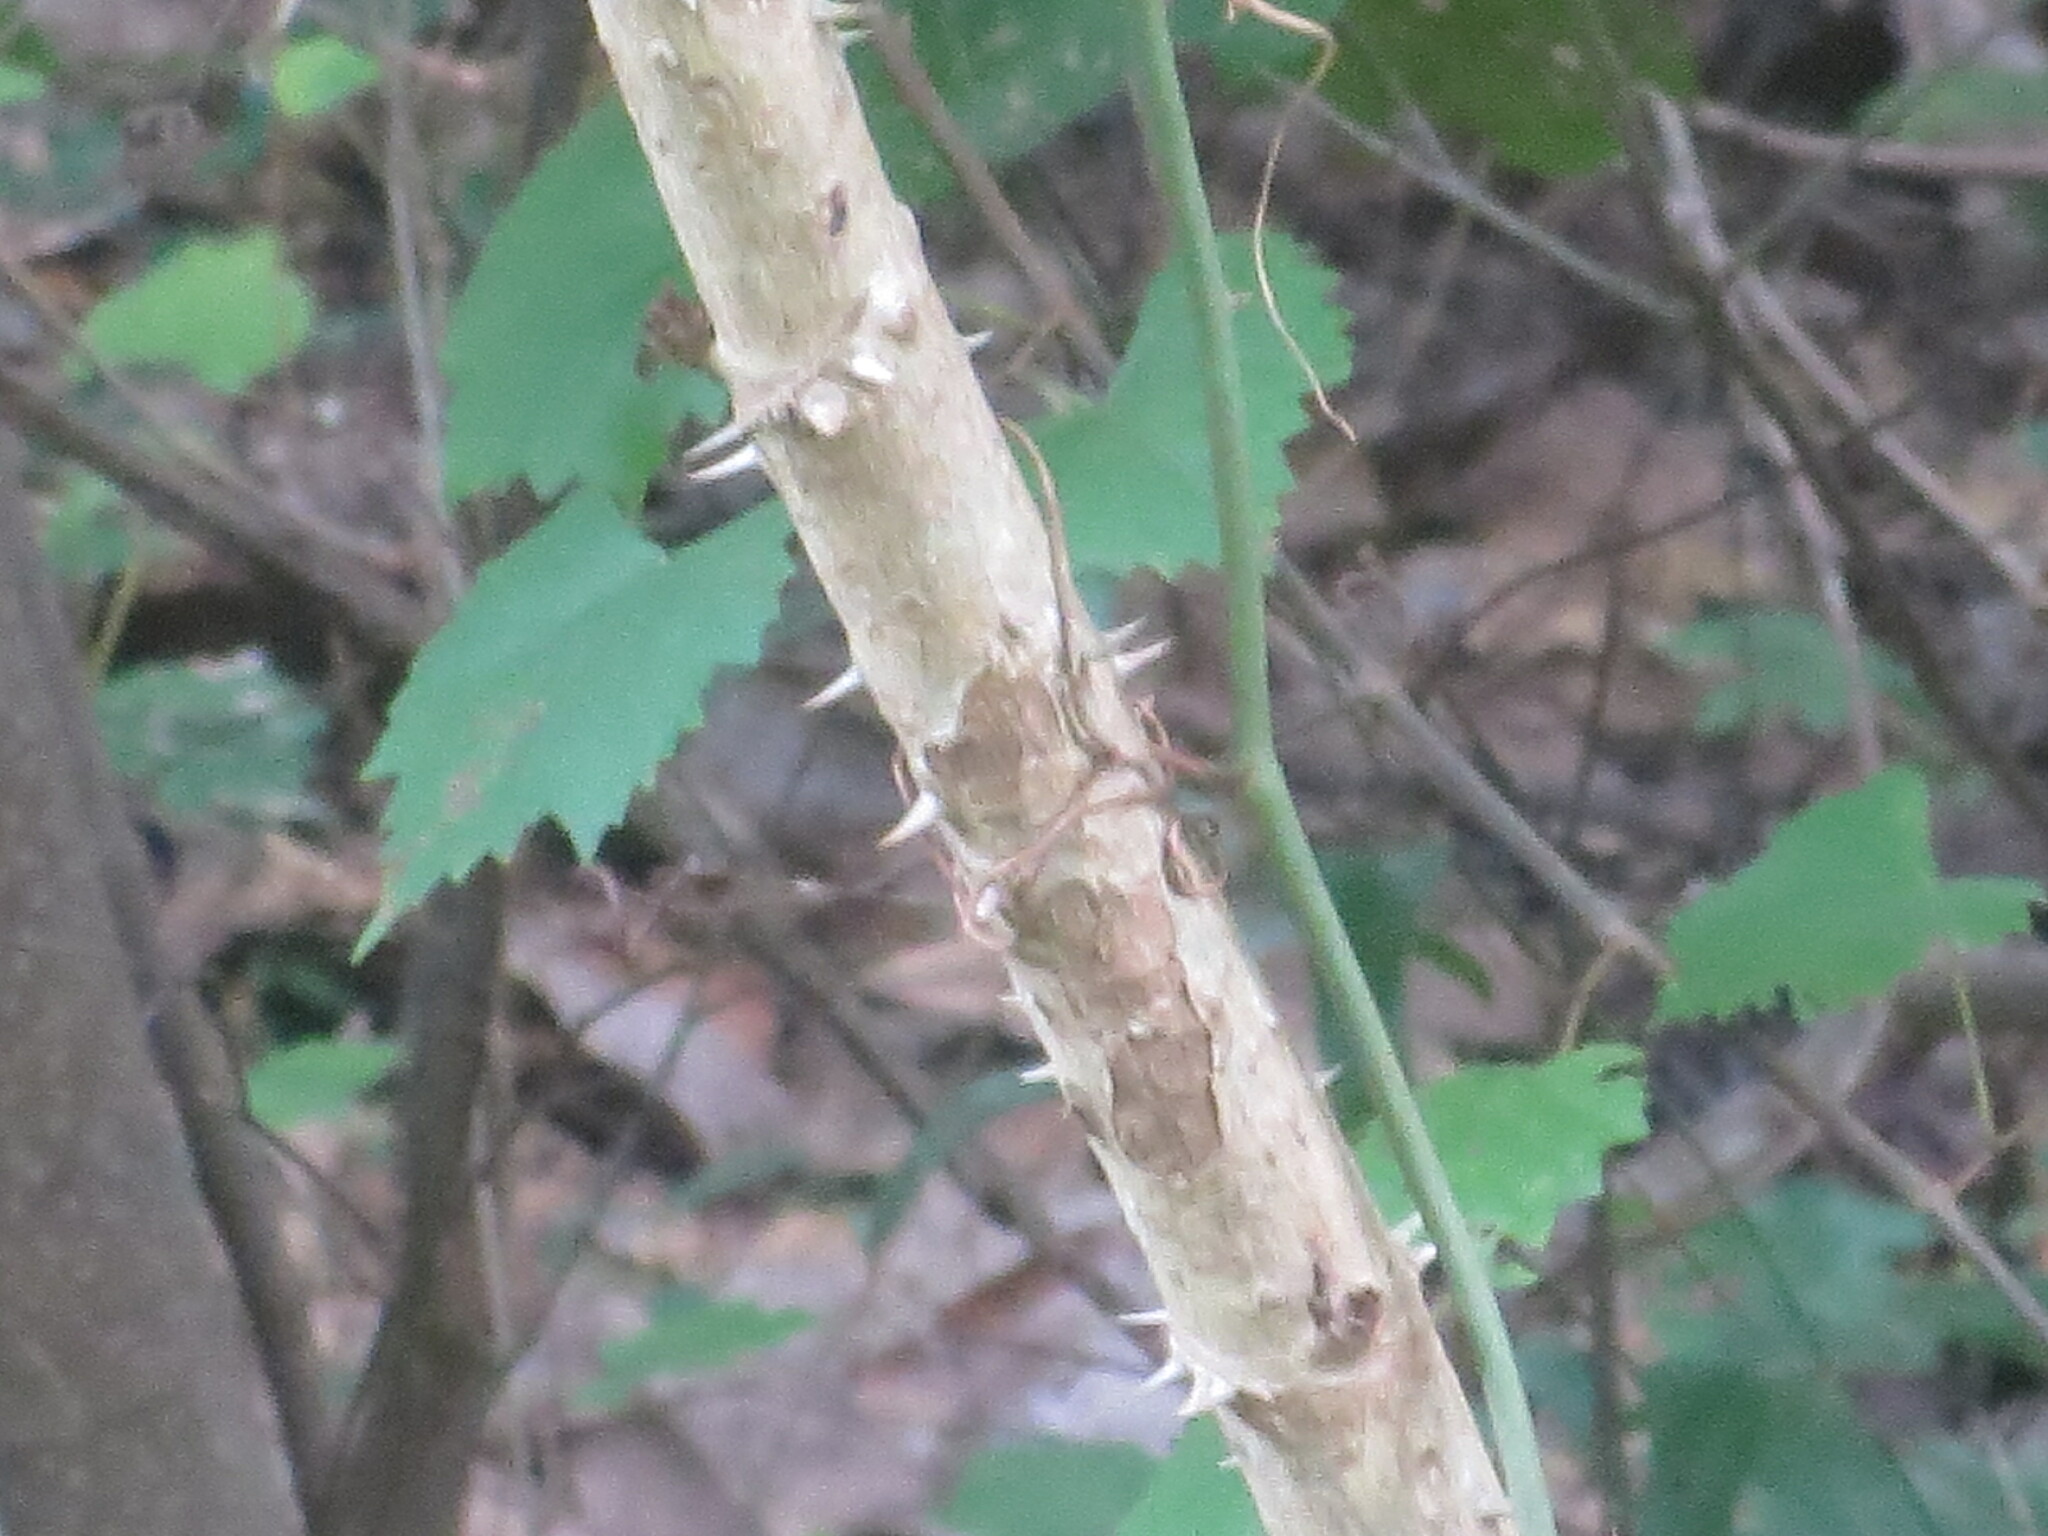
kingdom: Plantae
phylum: Tracheophyta
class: Magnoliopsida
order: Apiales
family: Araliaceae
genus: Aralia
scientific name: Aralia spinosa
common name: Hercules'-club
